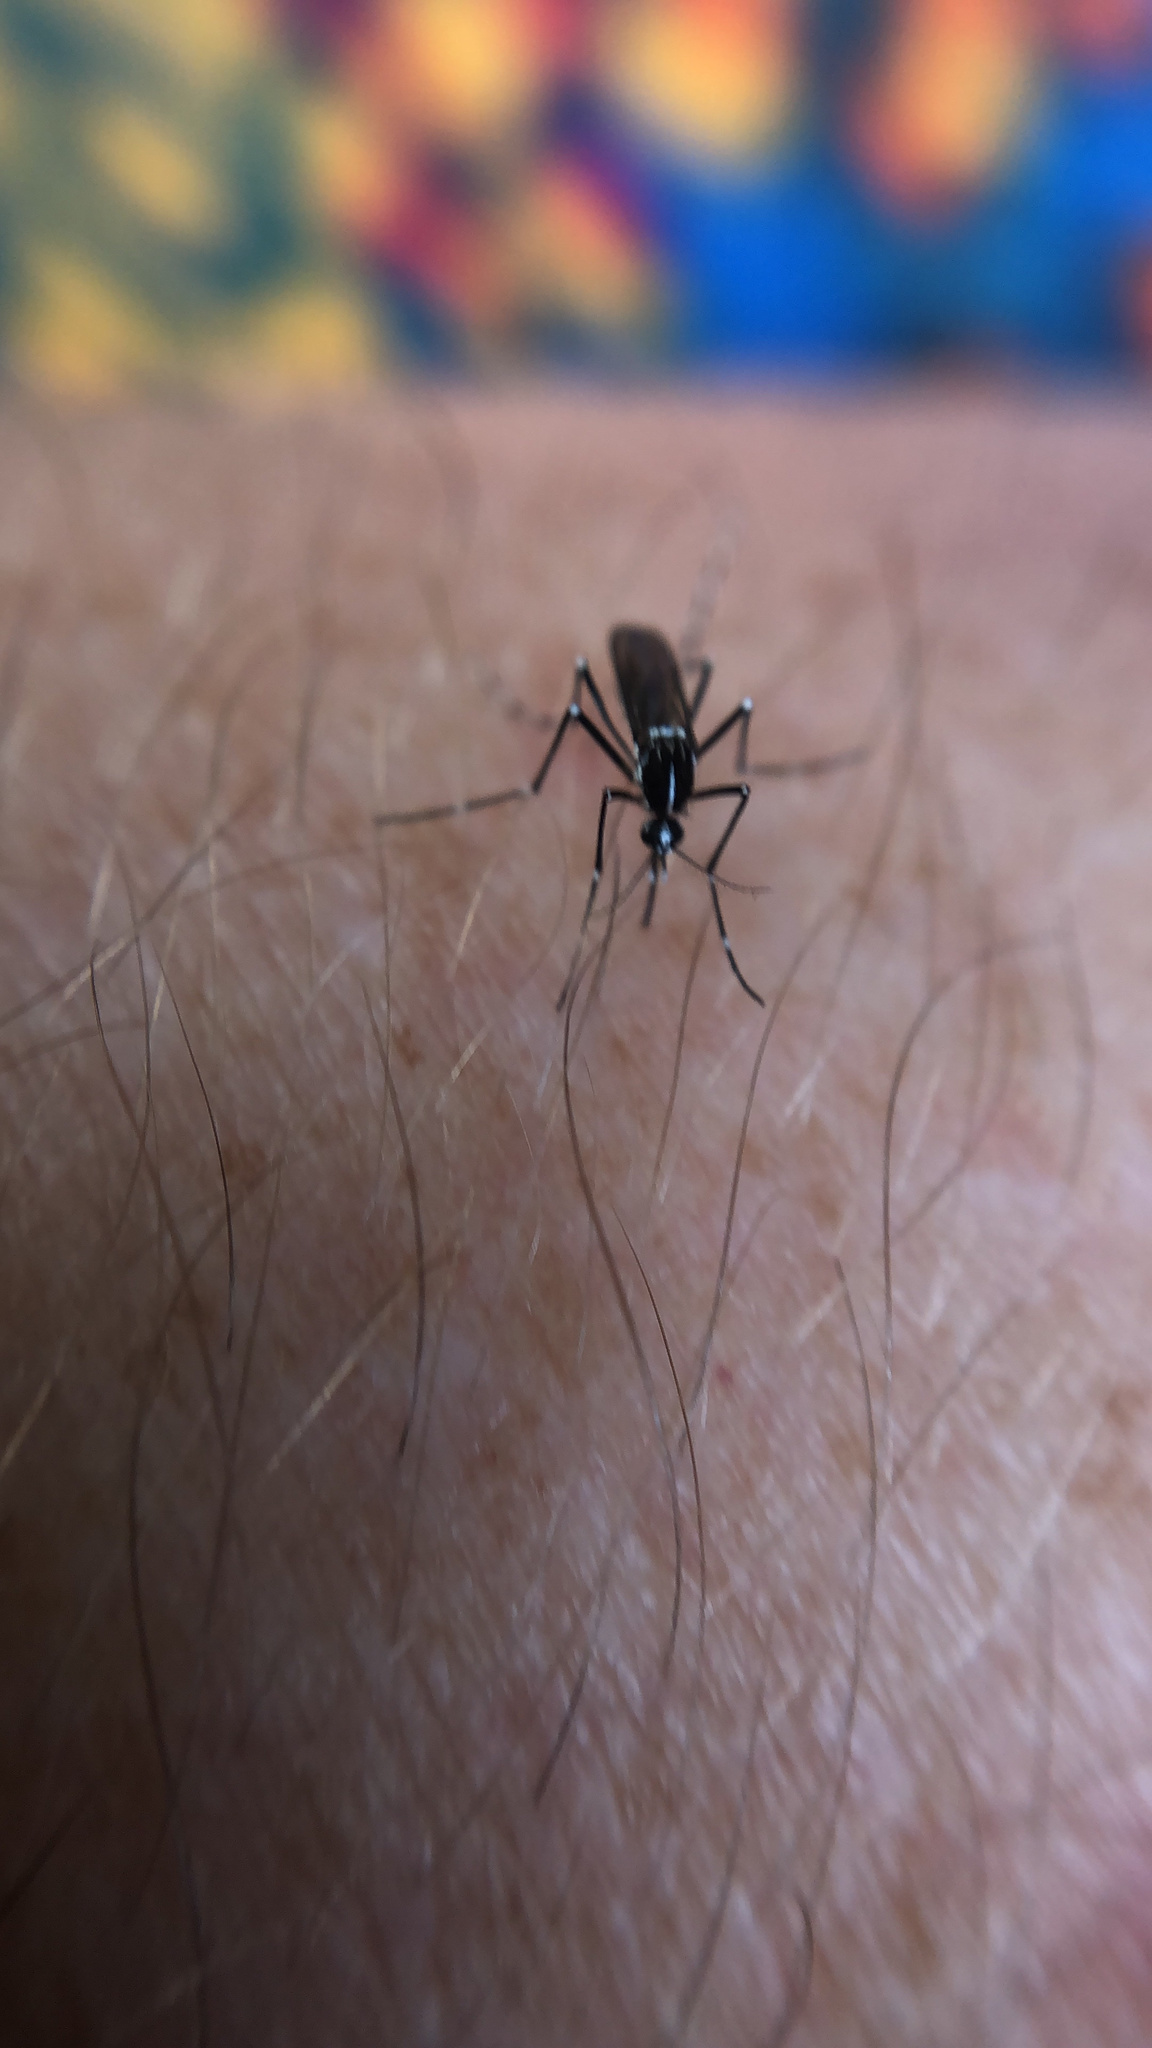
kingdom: Animalia
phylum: Arthropoda
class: Insecta
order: Diptera
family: Culicidae
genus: Aedes
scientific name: Aedes albopictus
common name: Tiger mosquito
